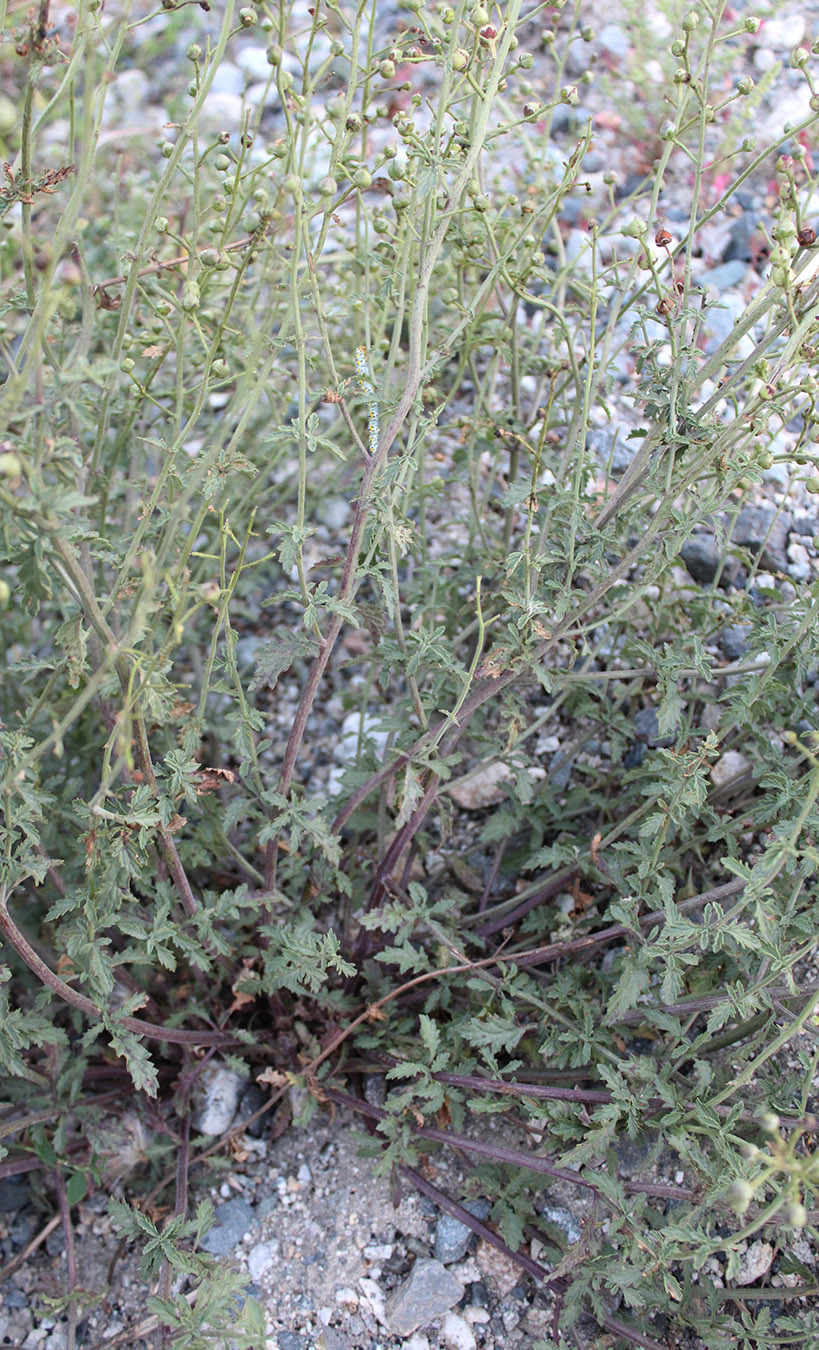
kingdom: Plantae
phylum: Tracheophyta
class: Magnoliopsida
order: Lamiales
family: Scrophulariaceae
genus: Scrophularia
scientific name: Scrophularia rupestris
